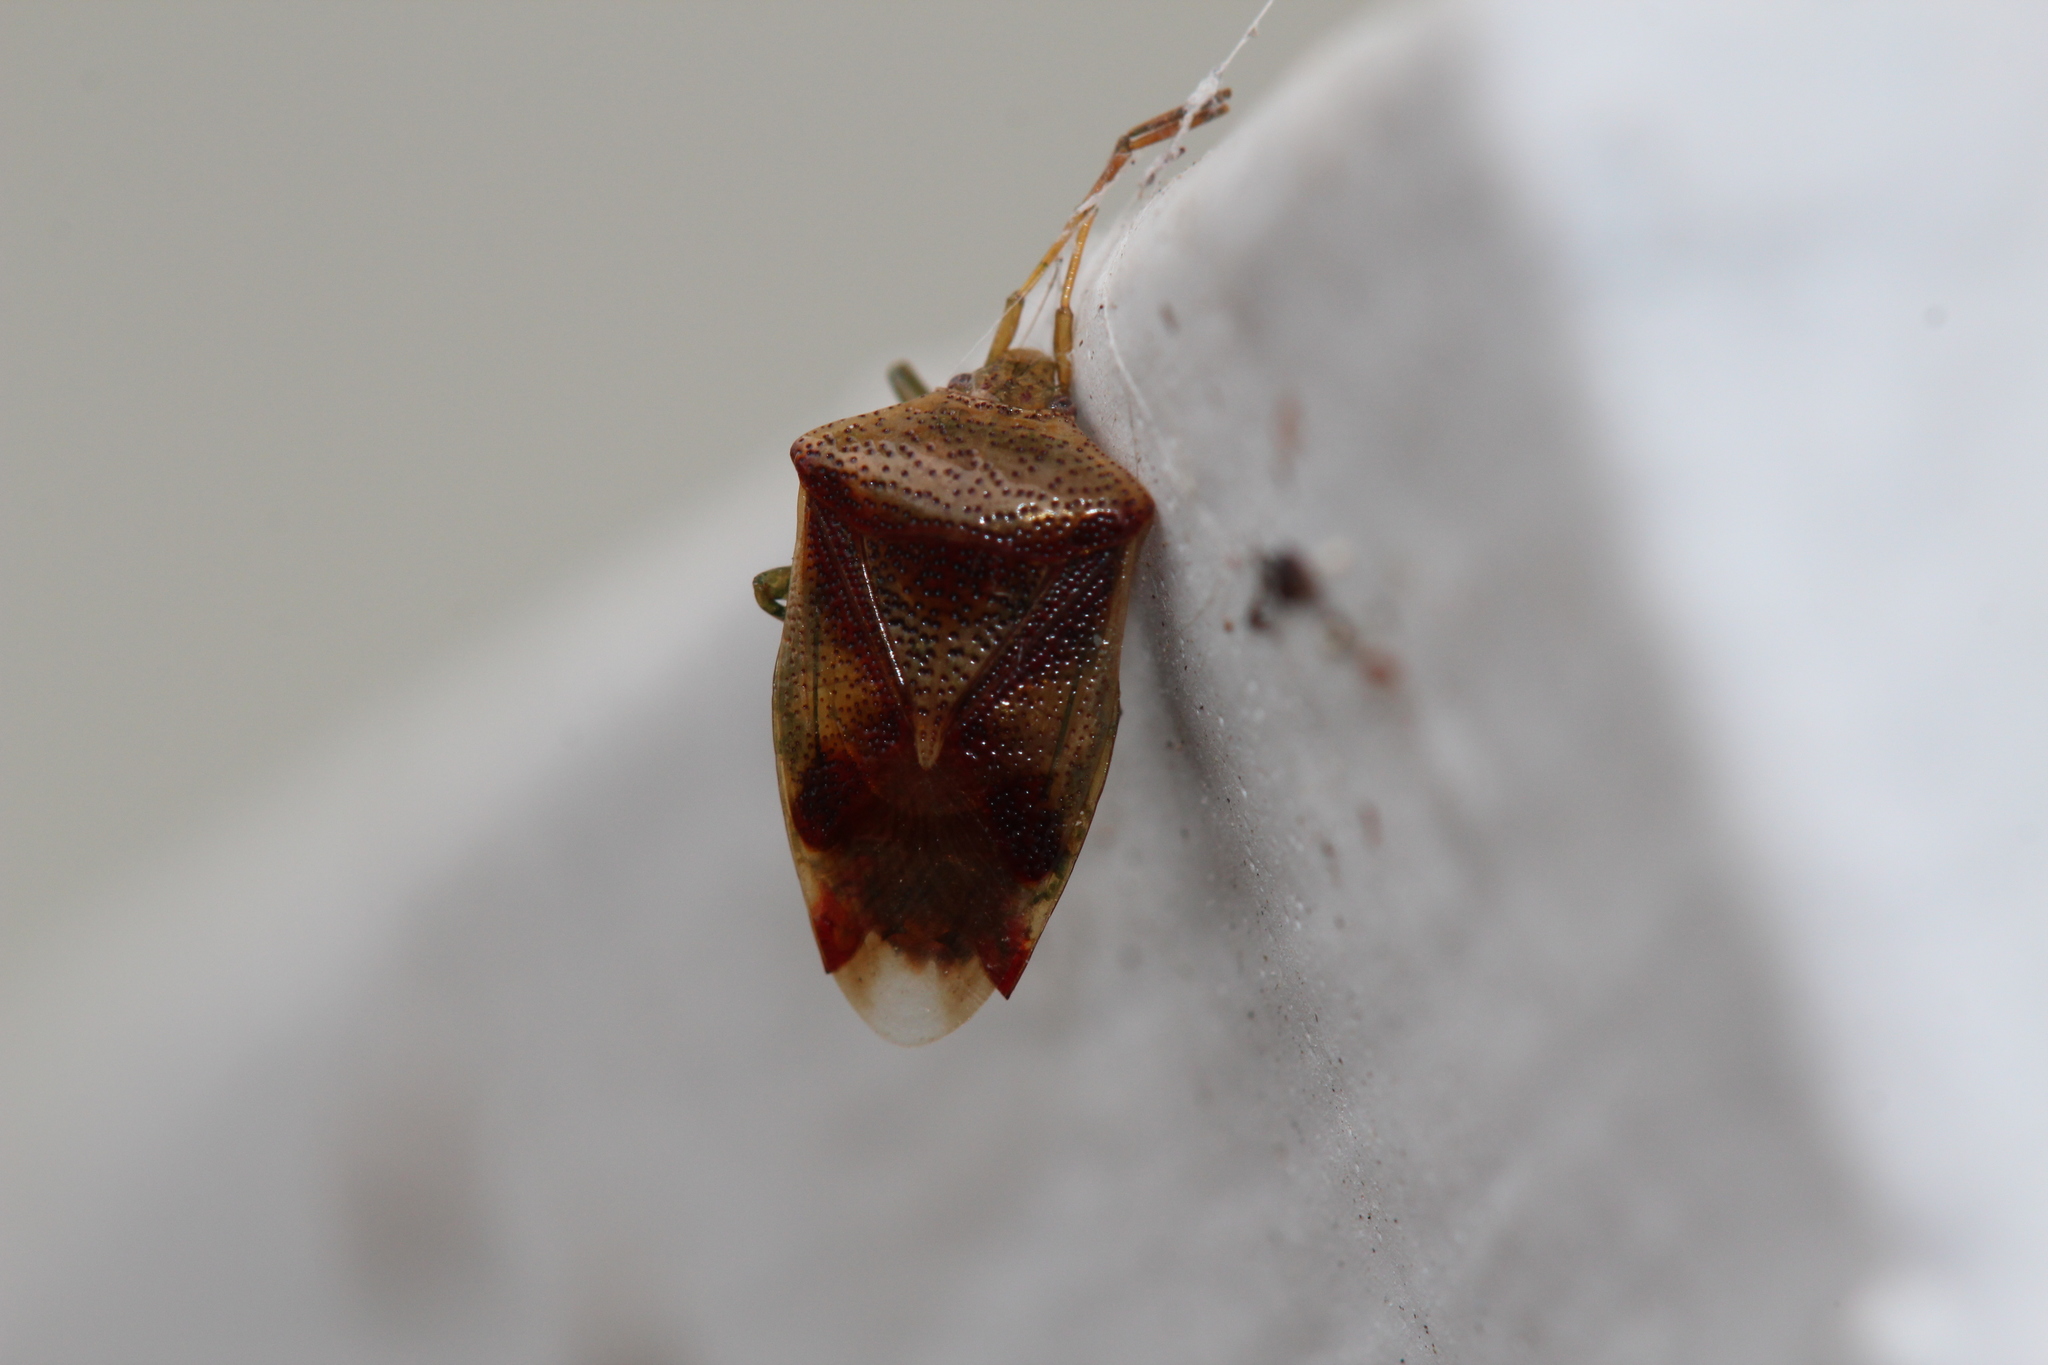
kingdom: Animalia
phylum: Arthropoda
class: Insecta
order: Hemiptera
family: Acanthosomatidae
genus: Elasmucha
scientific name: Elasmucha lateralis
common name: Shield bug
